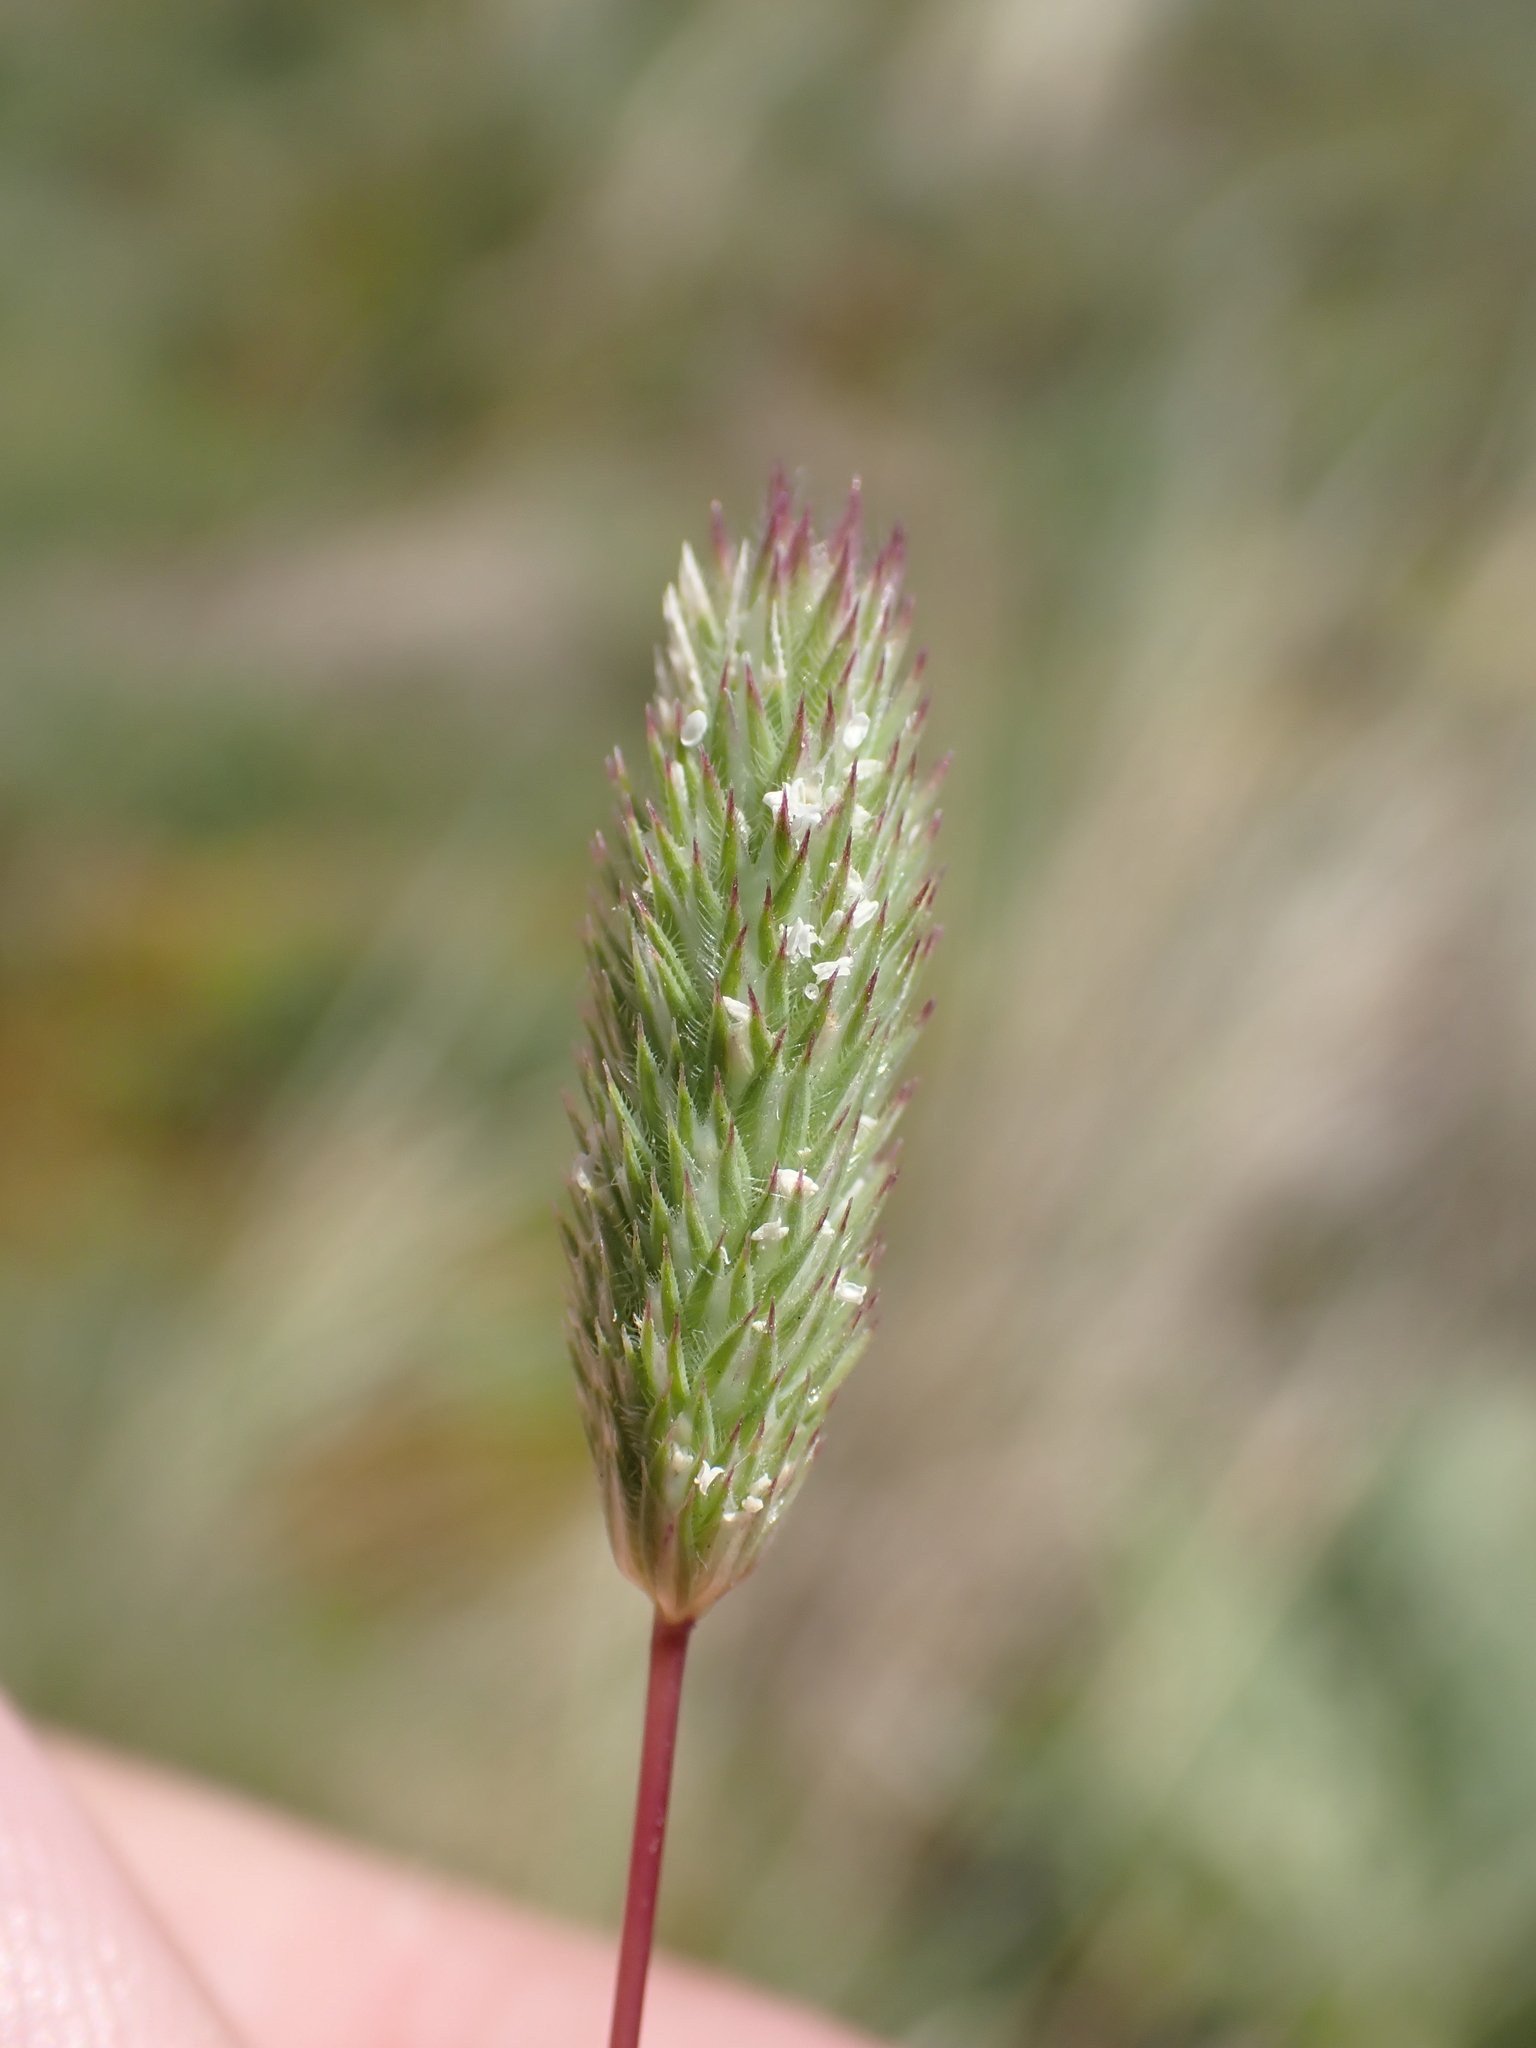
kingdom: Plantae
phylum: Tracheophyta
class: Liliopsida
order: Poales
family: Poaceae
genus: Phleum
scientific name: Phleum arenarium
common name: Sand cat's-tail
